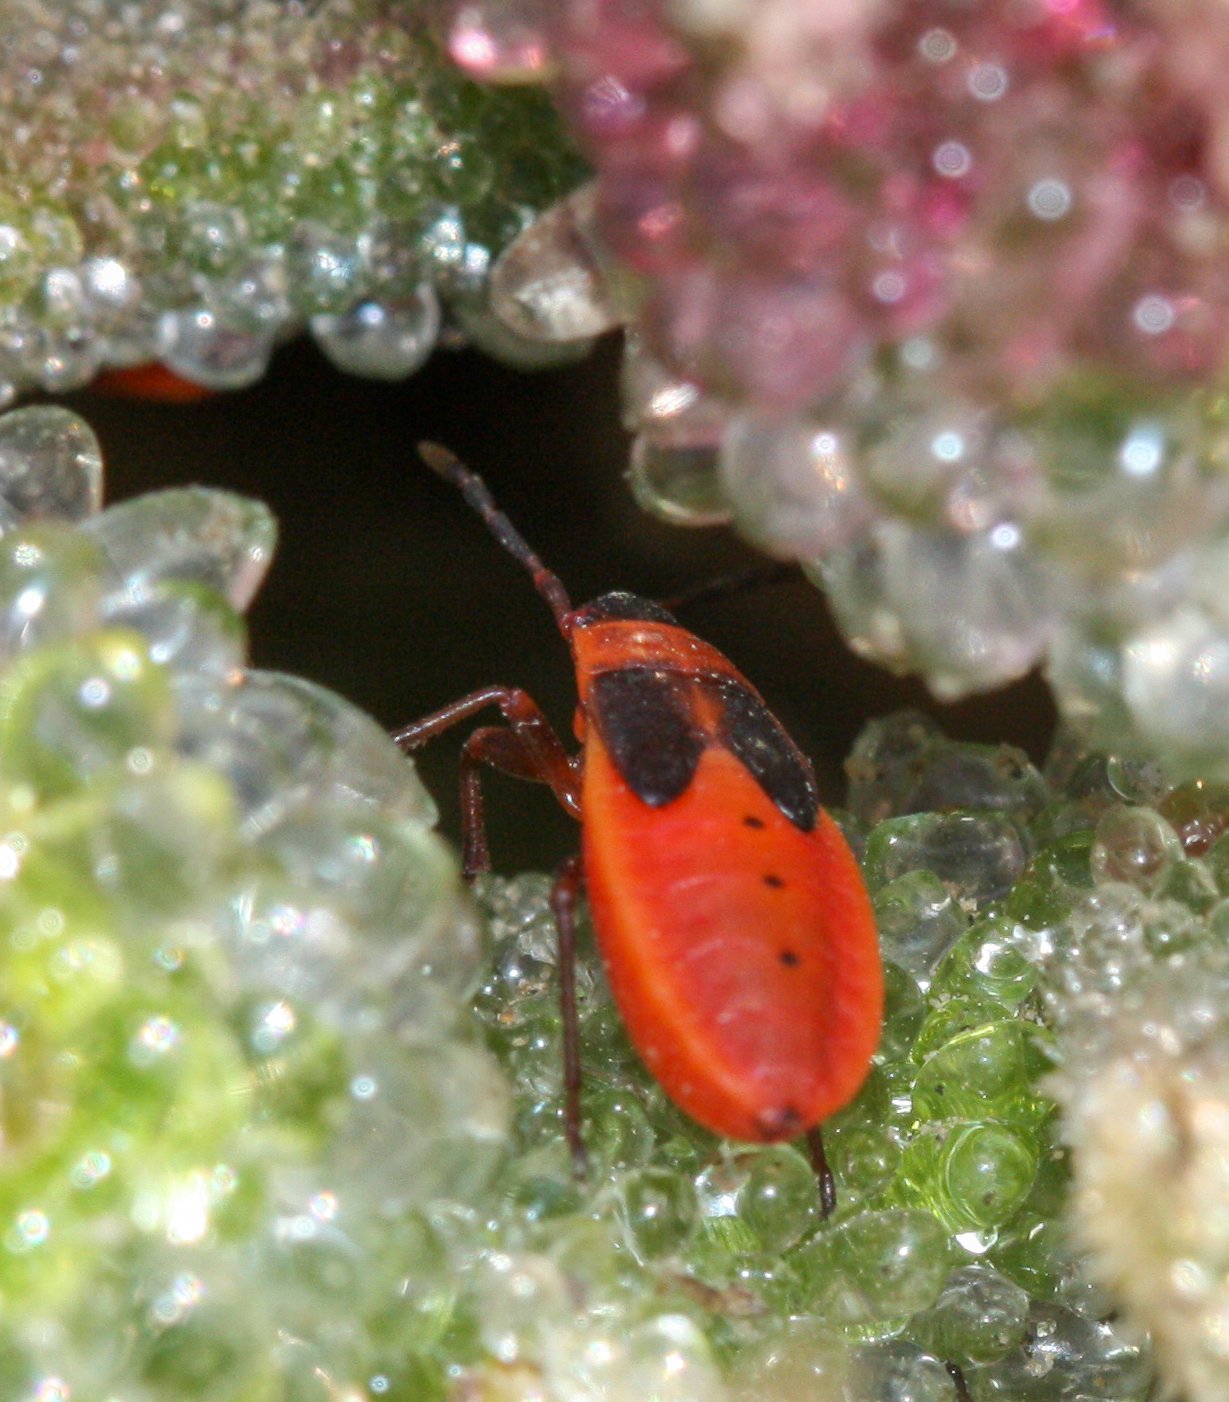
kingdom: Animalia
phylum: Arthropoda
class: Insecta
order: Hemiptera
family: Pyrrhocoridae
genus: Scantius
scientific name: Scantius aegyptius
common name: Red bug
